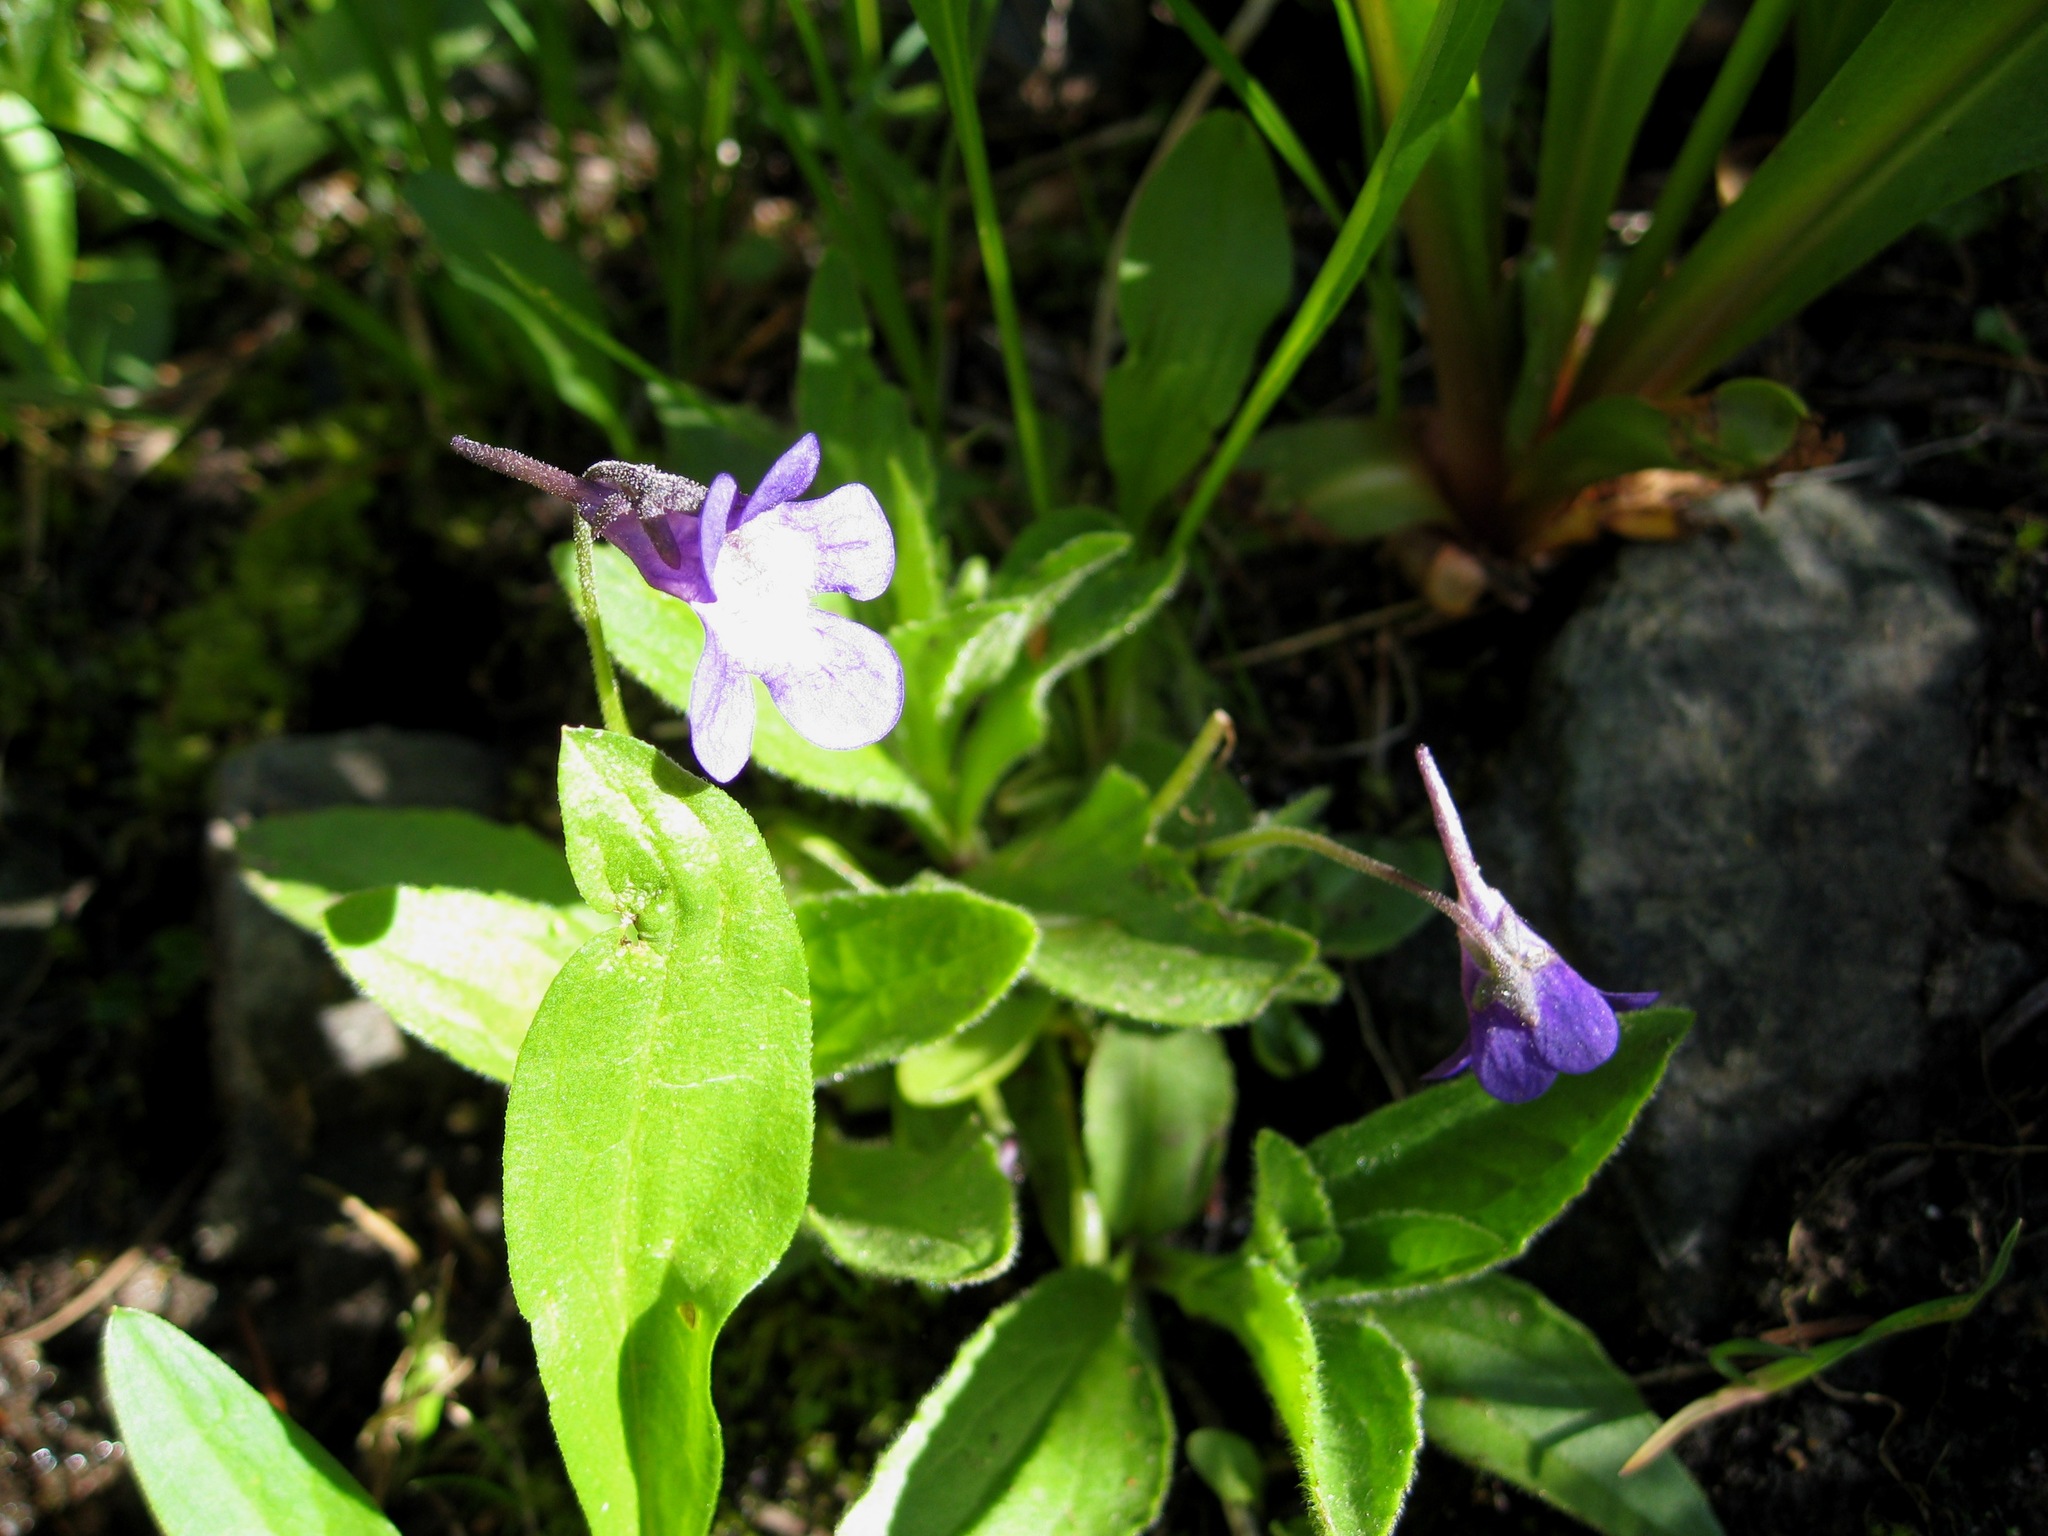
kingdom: Plantae
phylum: Tracheophyta
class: Magnoliopsida
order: Lamiales
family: Lentibulariaceae
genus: Pinguicula
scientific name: Pinguicula macroceras
